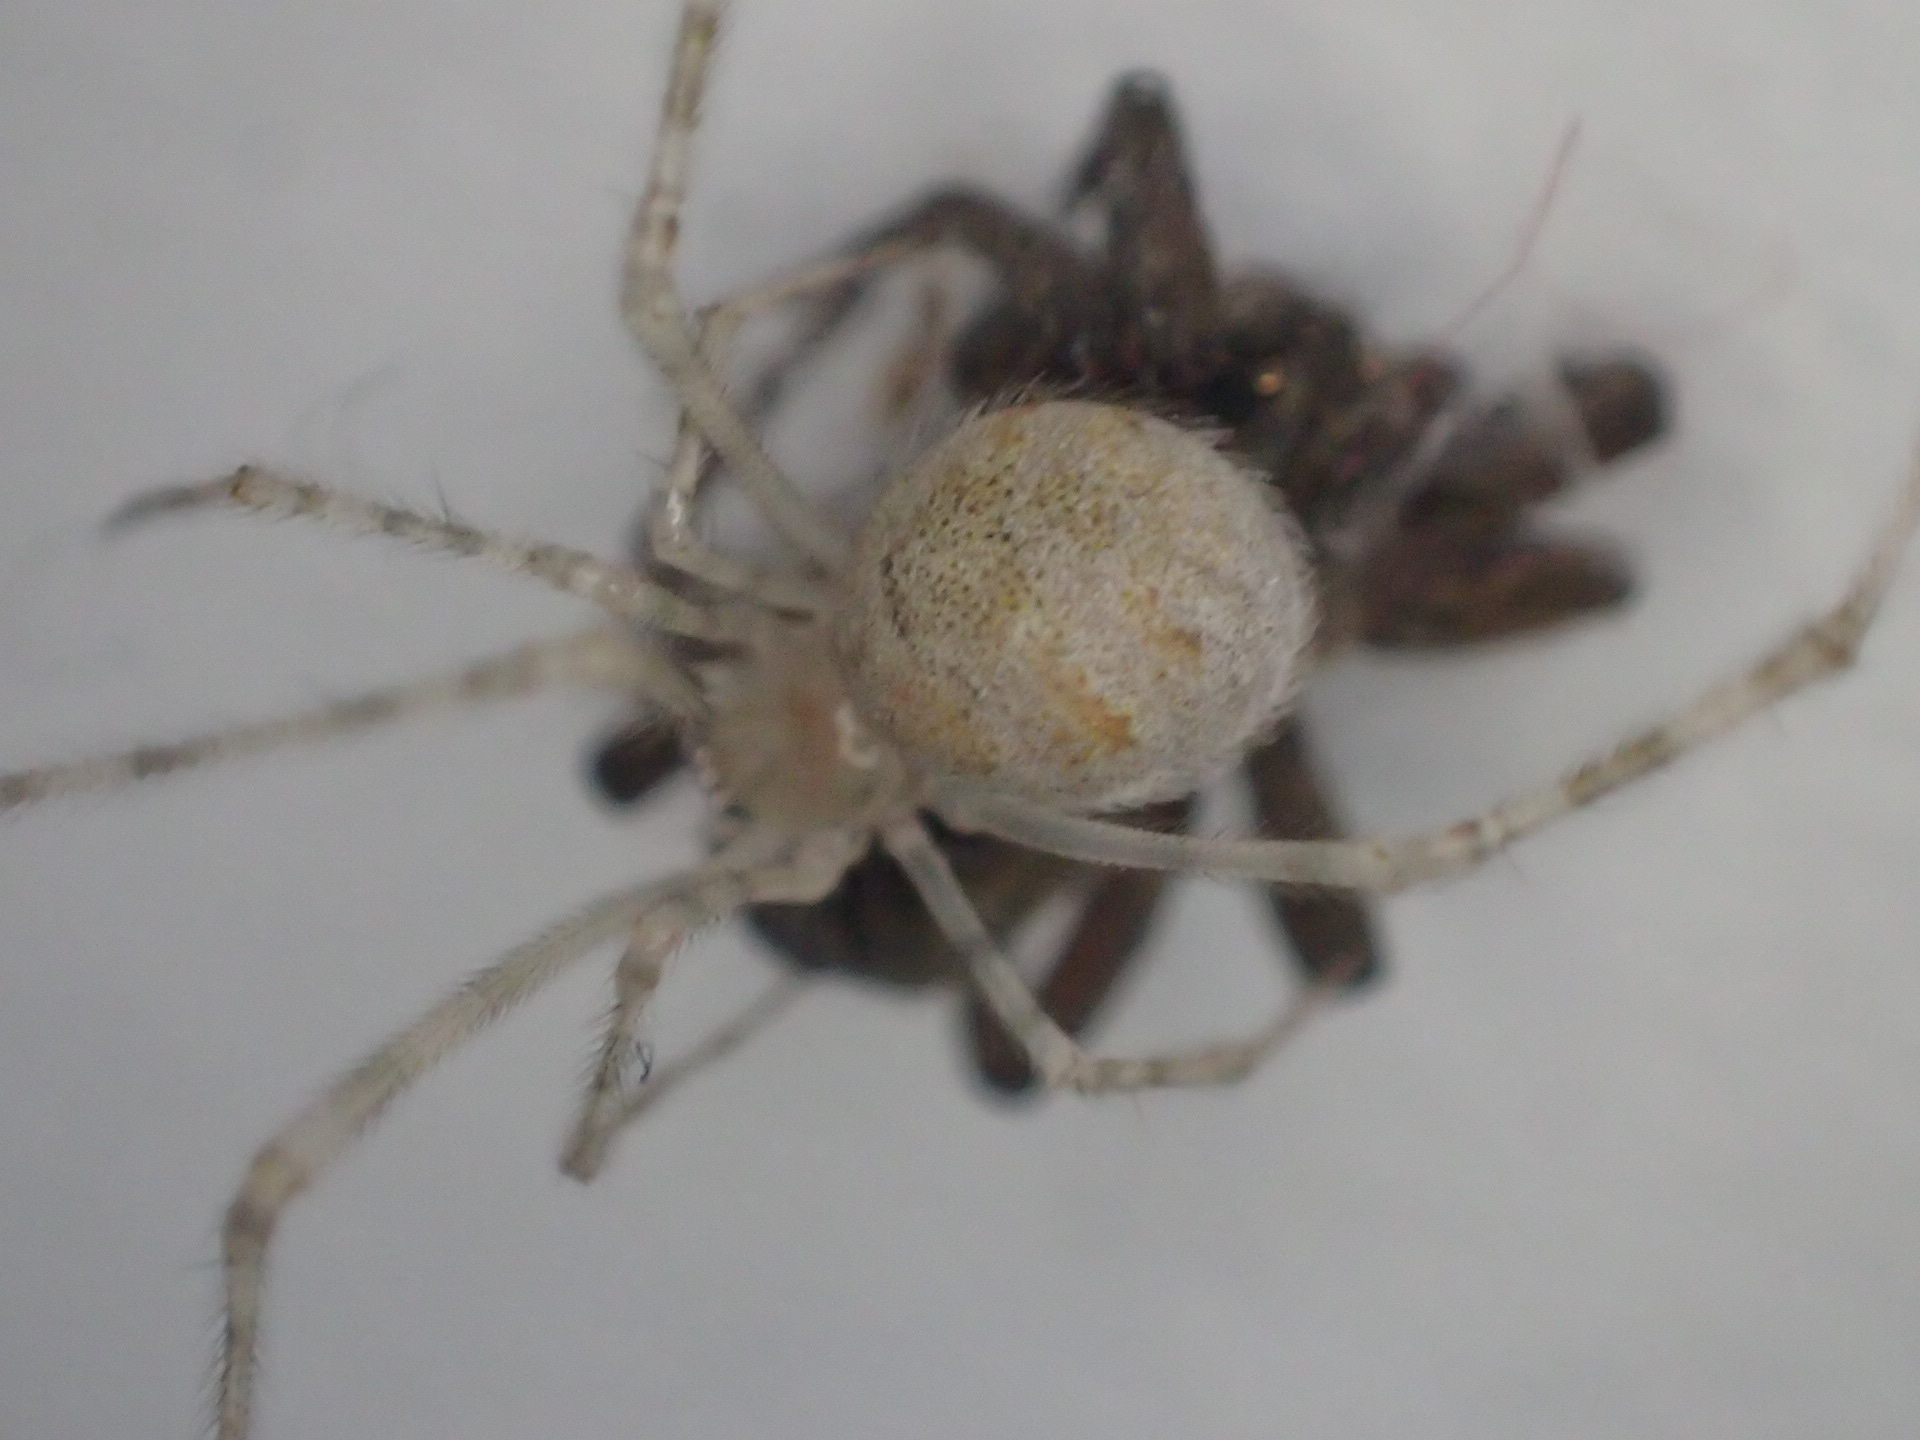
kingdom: Animalia
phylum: Arthropoda
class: Arachnida
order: Araneae
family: Theridiidae
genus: Cryptachaea
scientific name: Cryptachaea gigantipes
